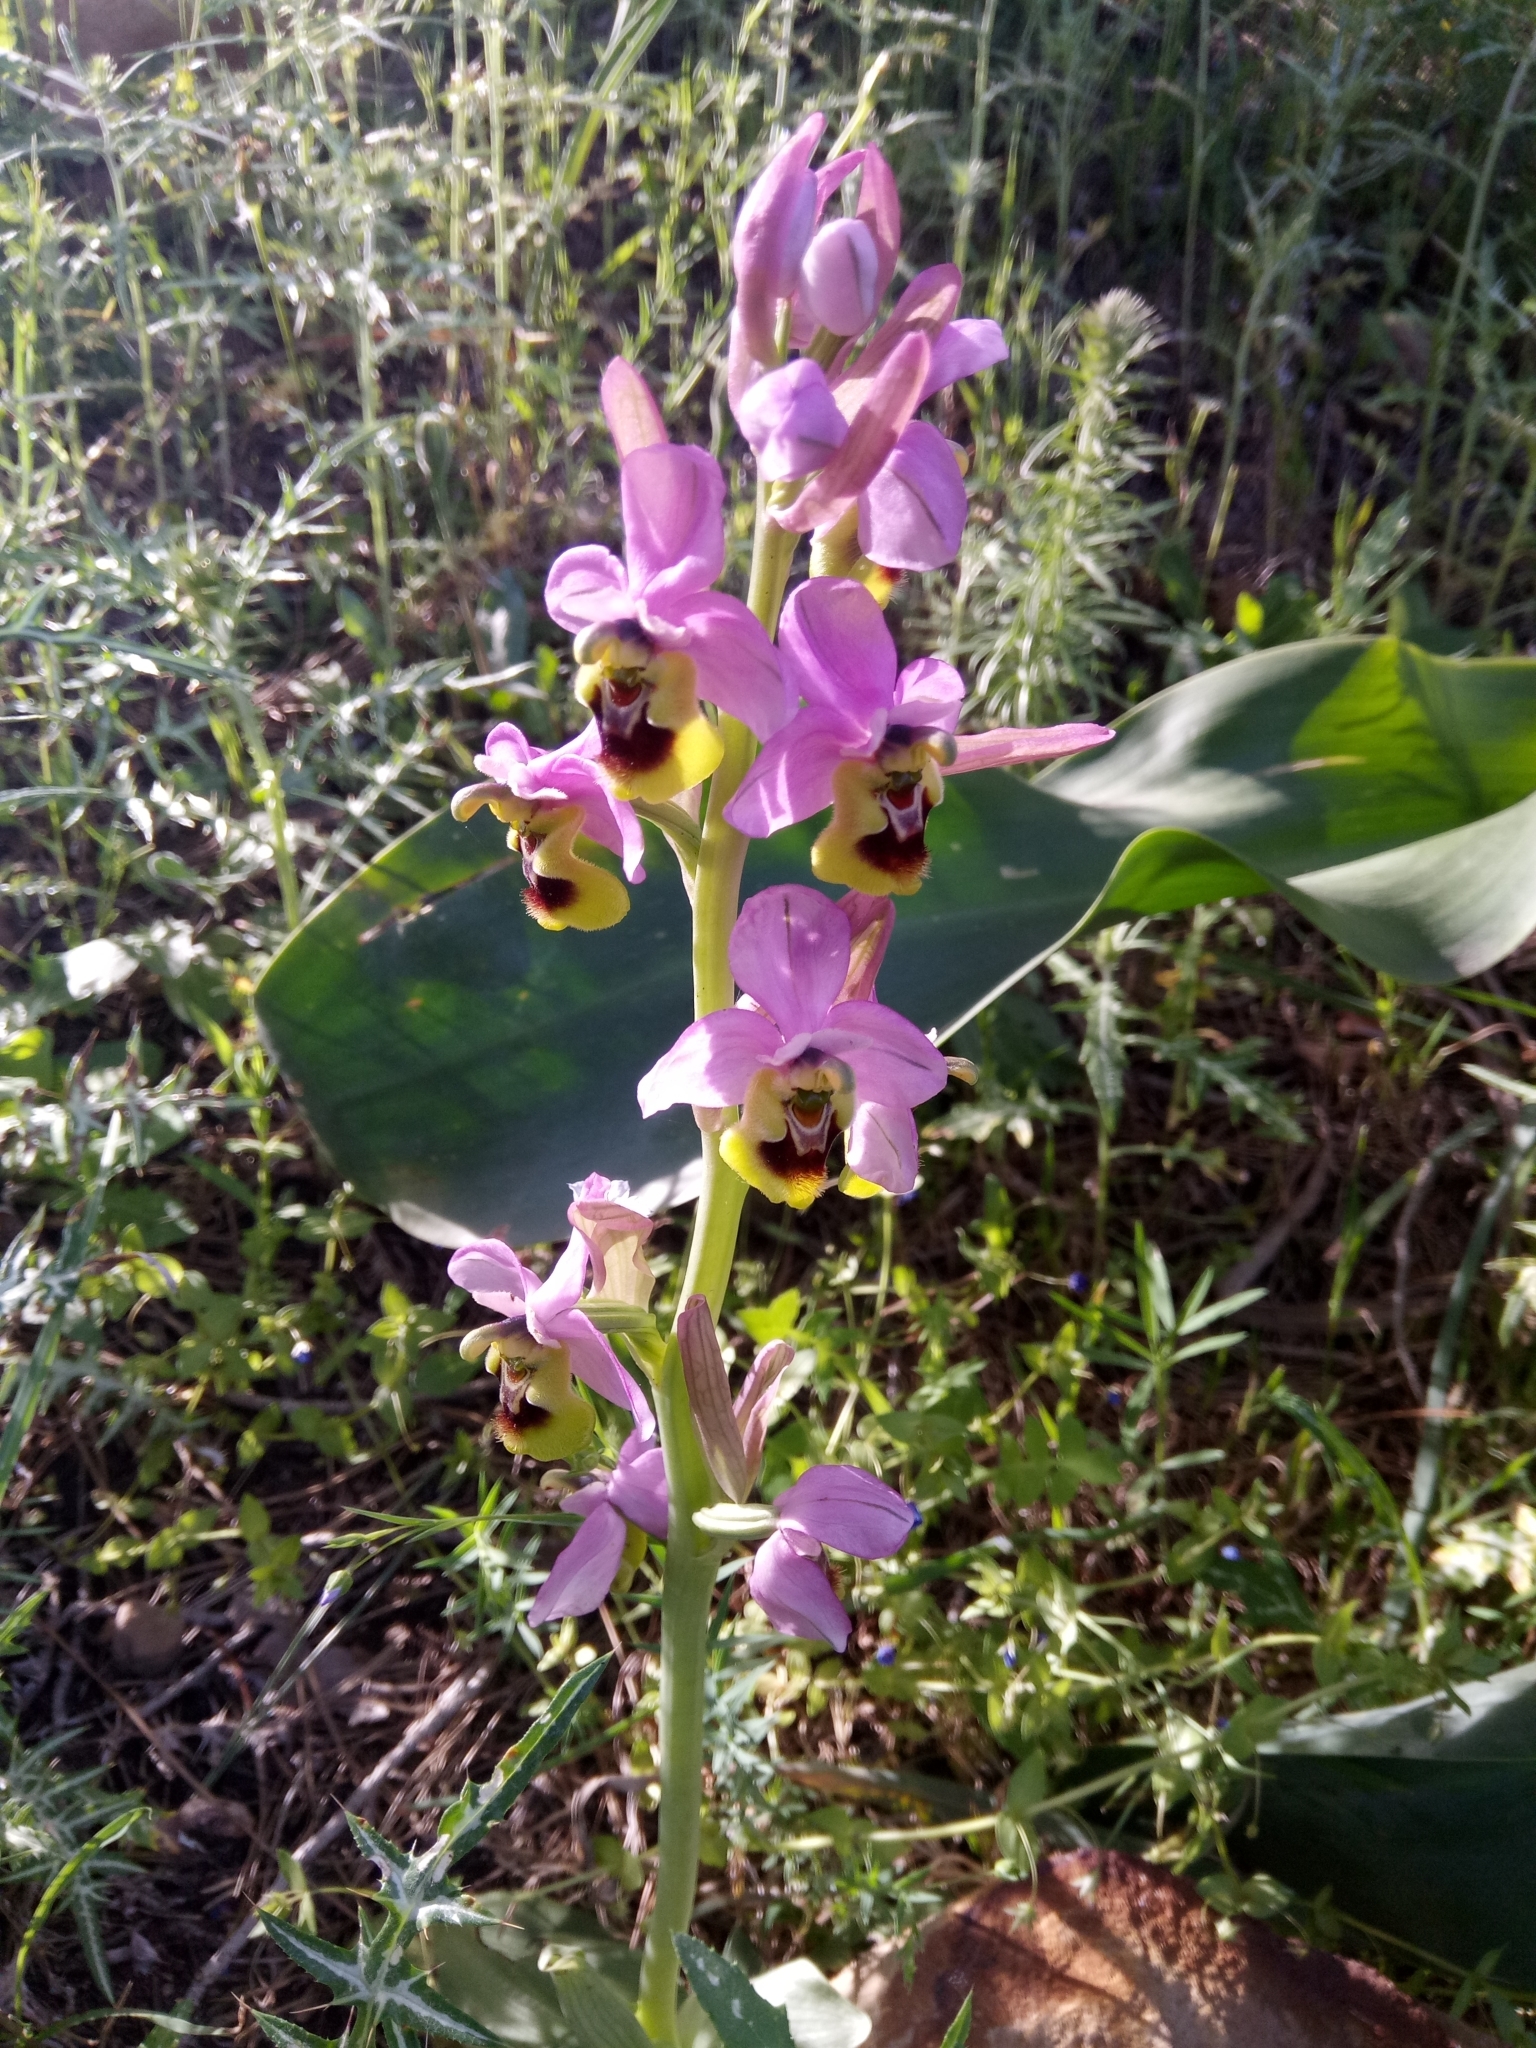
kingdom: Plantae
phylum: Tracheophyta
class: Liliopsida
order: Asparagales
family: Orchidaceae
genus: Ophrys
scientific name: Ophrys tenthredinifera
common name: Sawfly orchid
